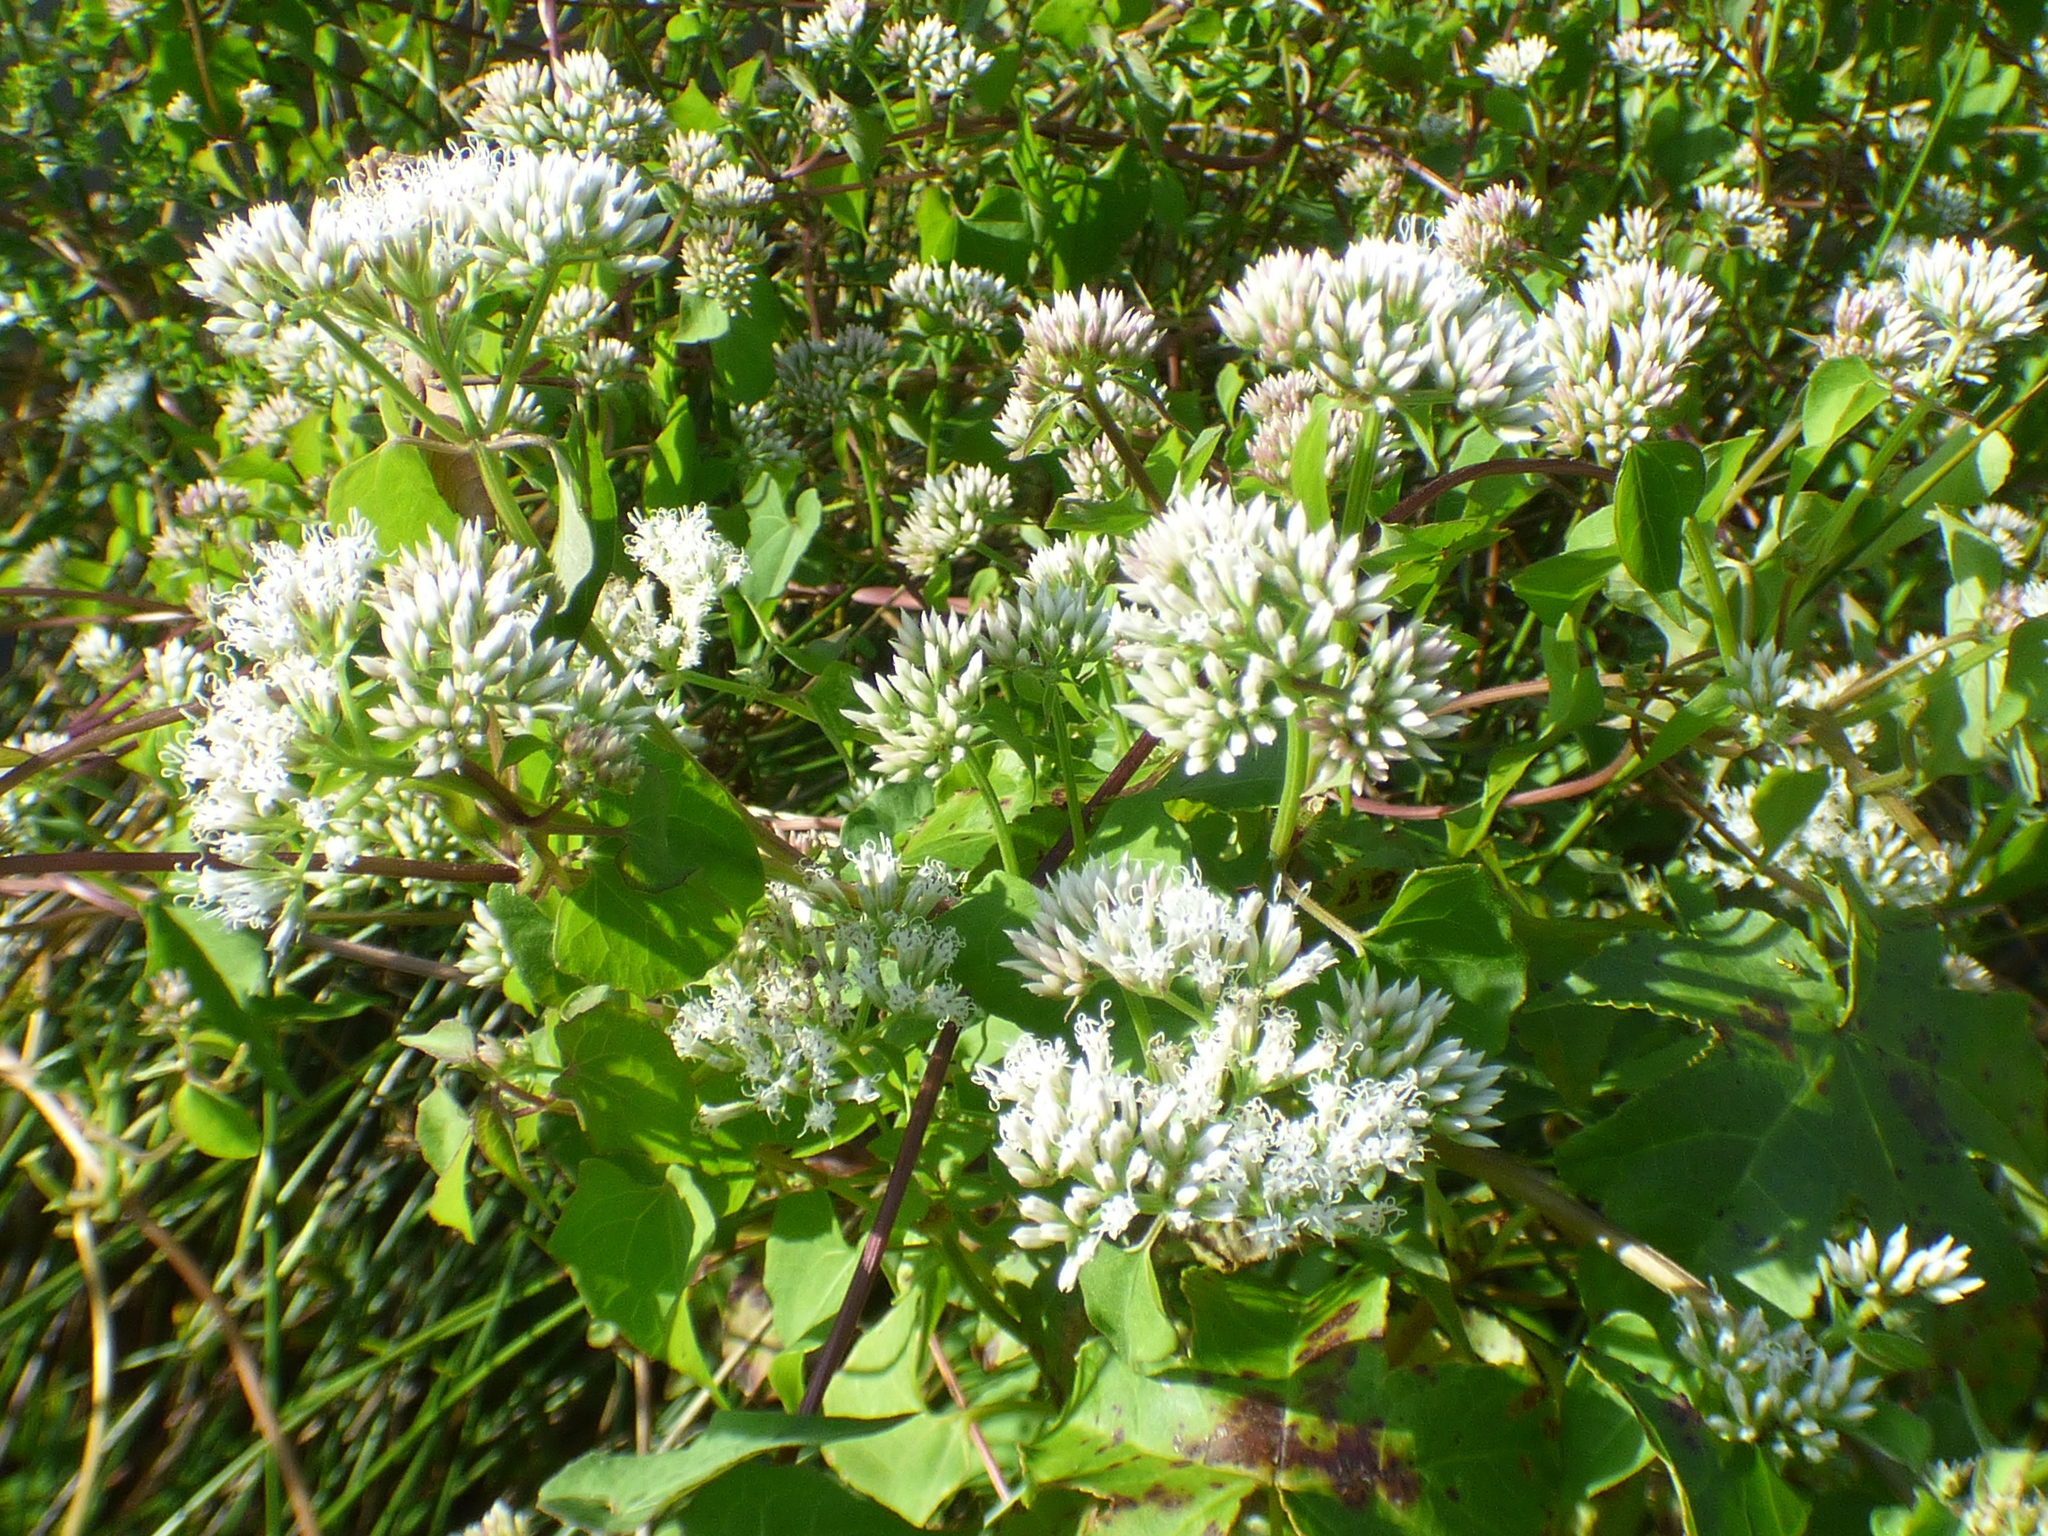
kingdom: Plantae
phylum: Tracheophyta
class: Magnoliopsida
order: Asterales
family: Asteraceae
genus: Mikania
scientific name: Mikania scandens
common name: Climbing hempvine
